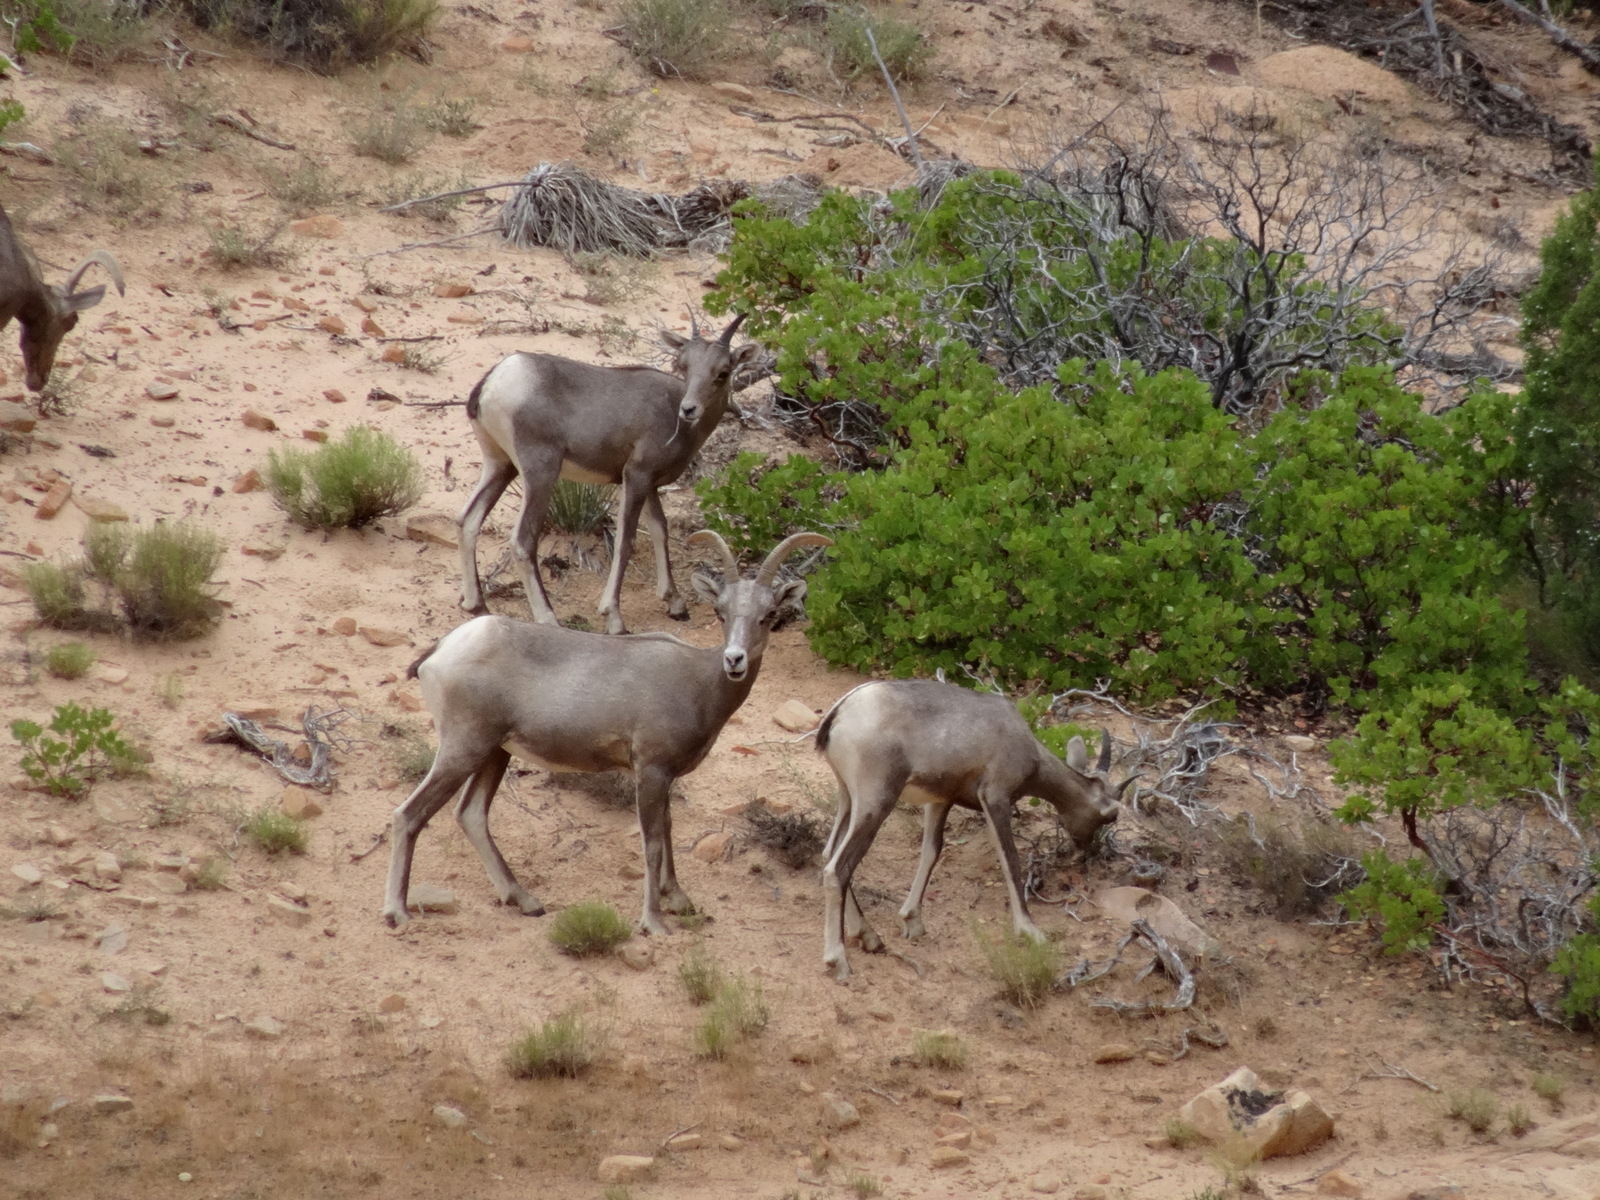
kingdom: Animalia
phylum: Chordata
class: Mammalia
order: Artiodactyla
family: Bovidae
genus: Ovis
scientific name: Ovis canadensis
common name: Bighorn sheep
